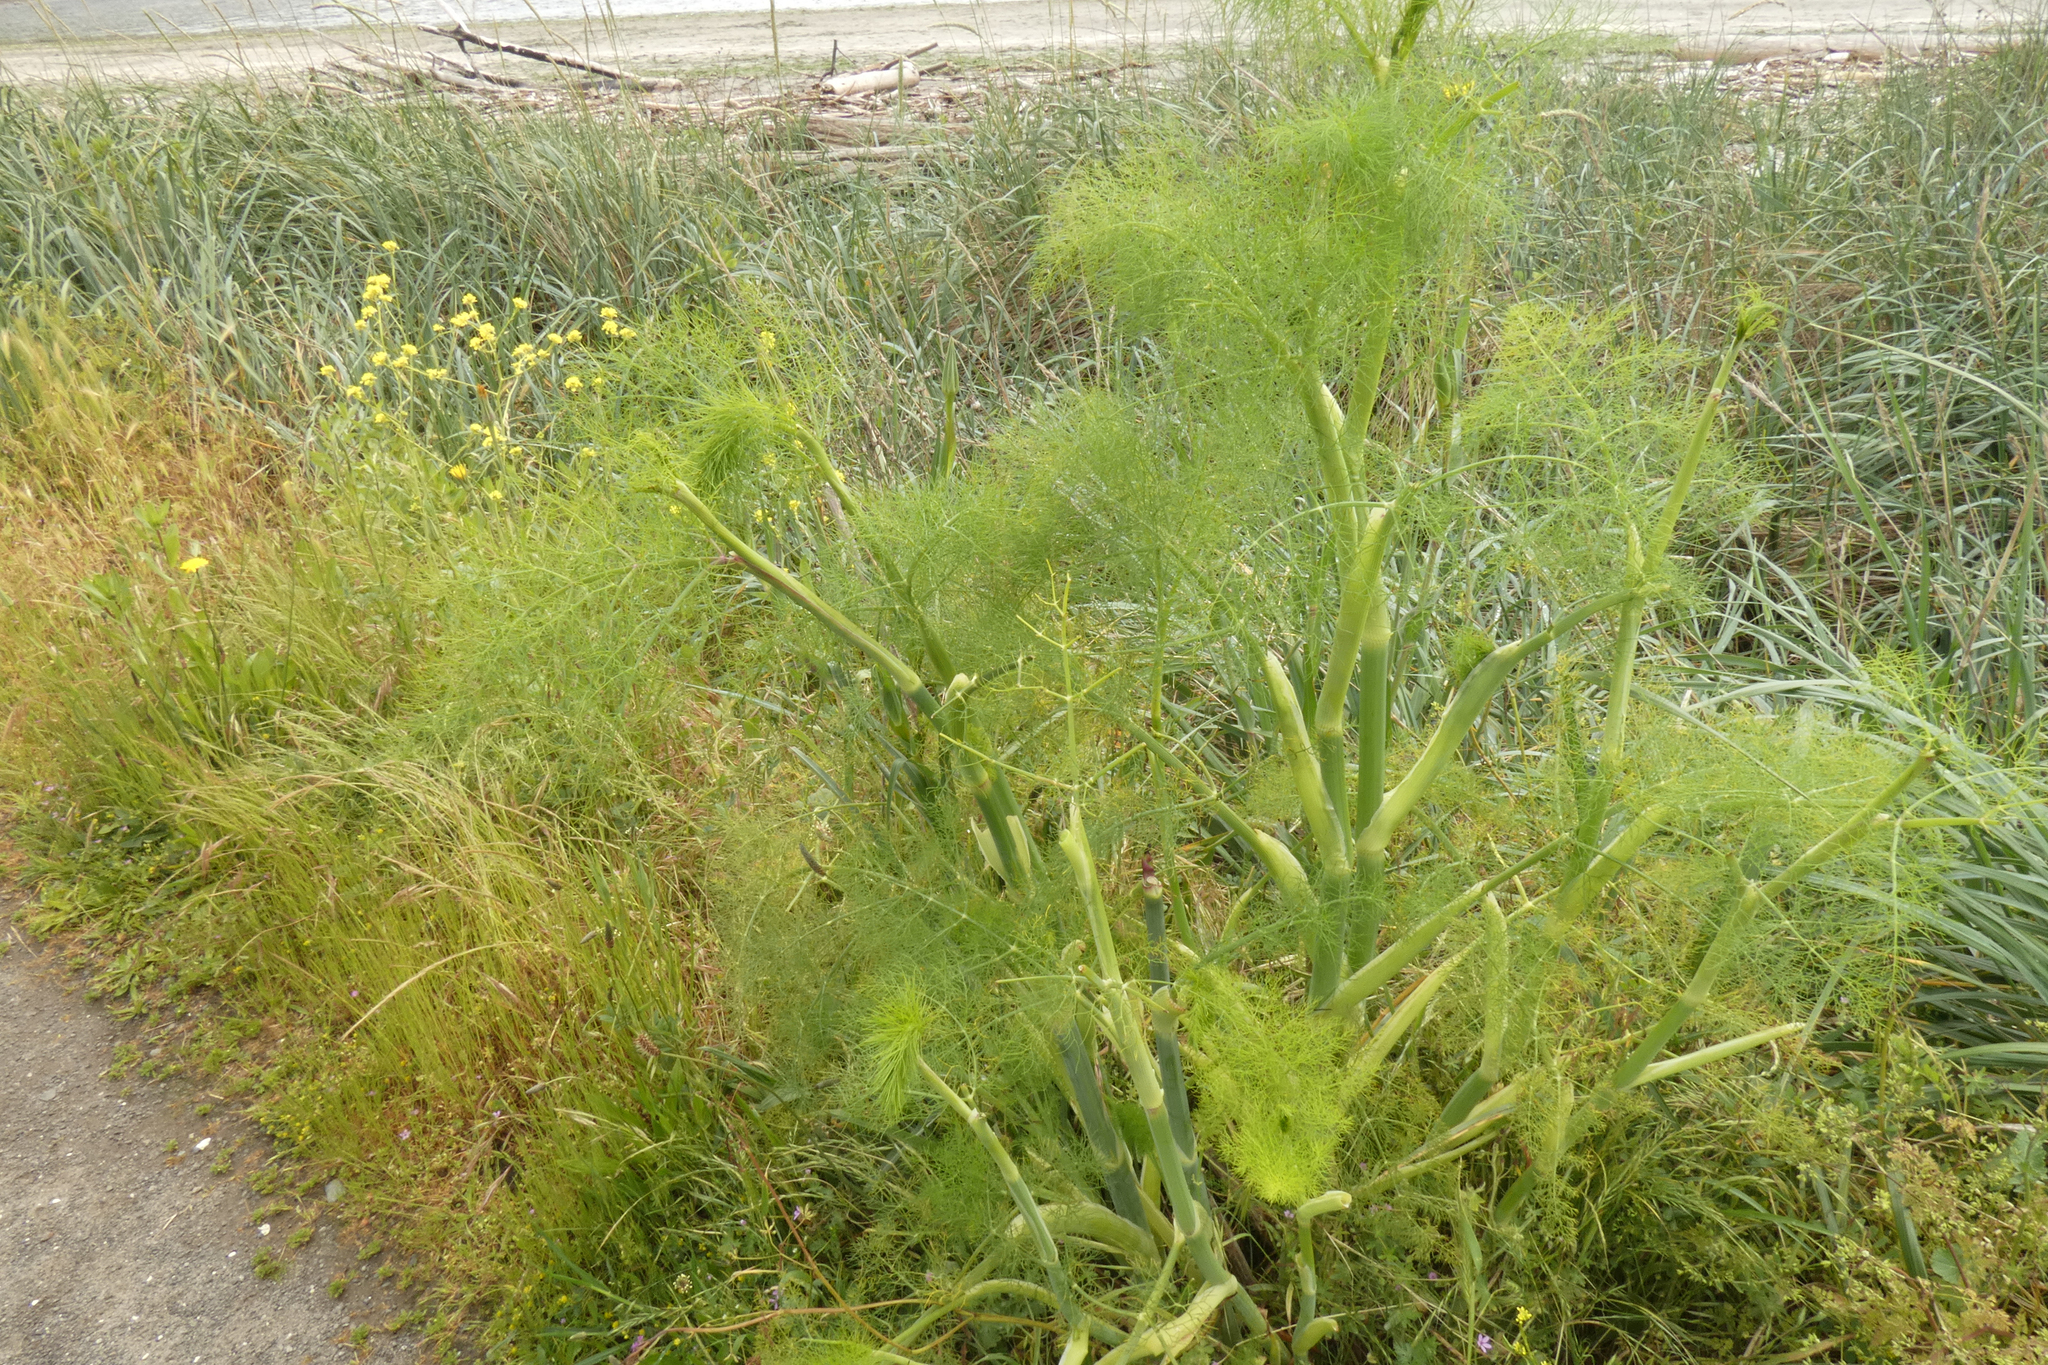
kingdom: Plantae
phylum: Tracheophyta
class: Magnoliopsida
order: Apiales
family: Apiaceae
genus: Foeniculum
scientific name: Foeniculum vulgare
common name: Fennel
